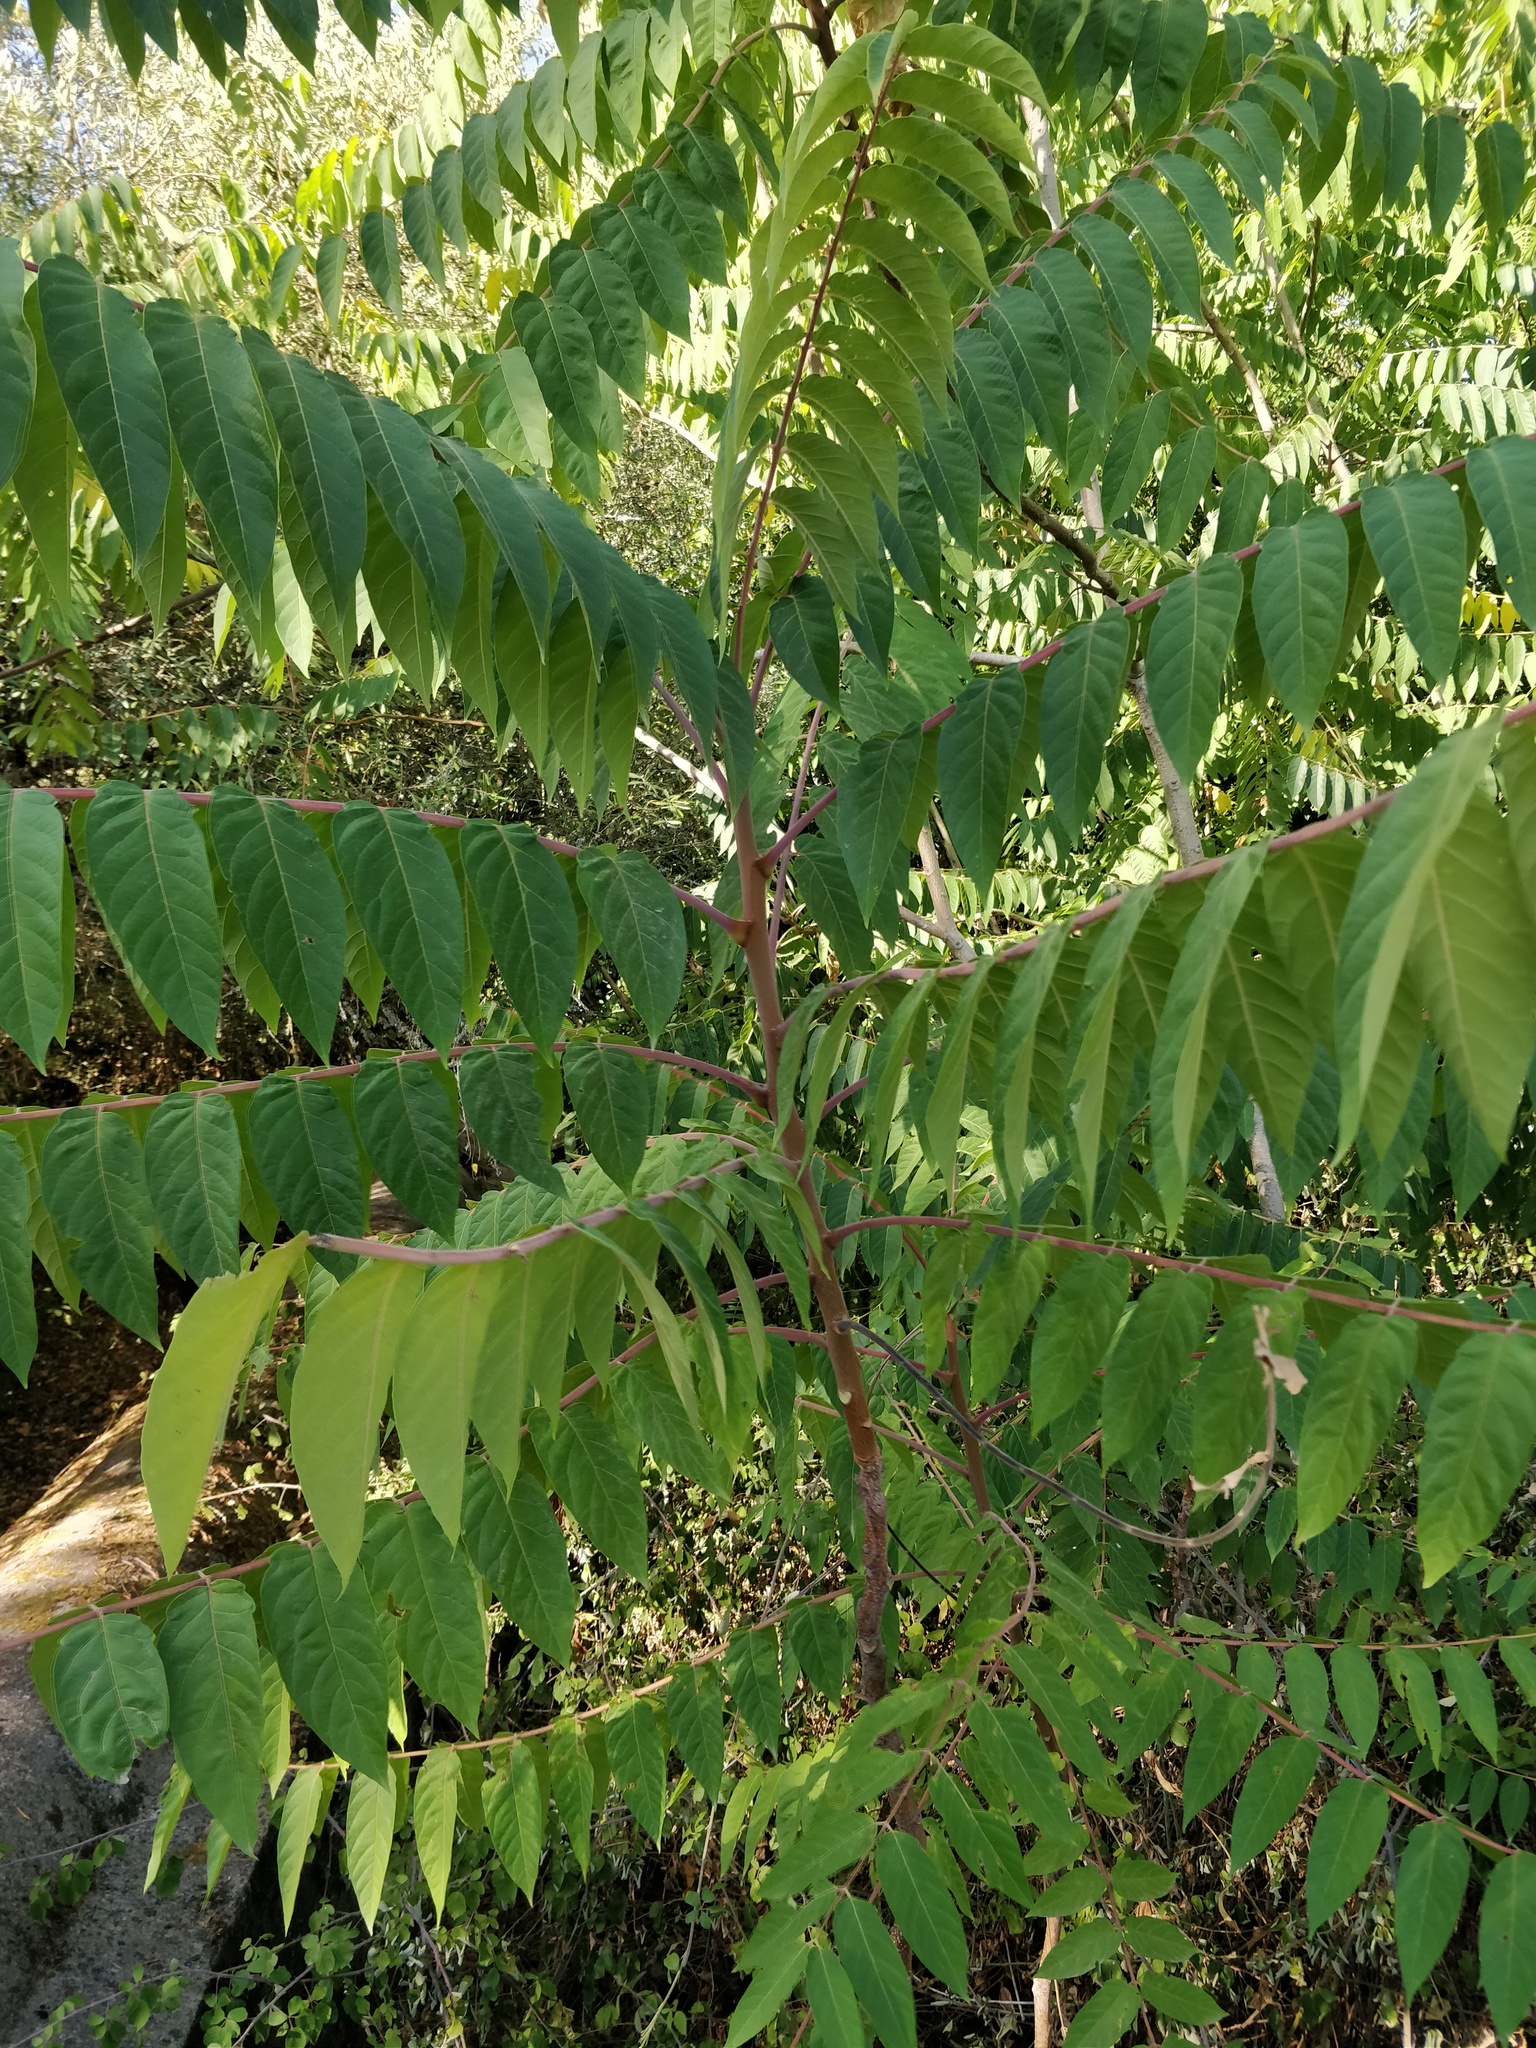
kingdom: Plantae
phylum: Tracheophyta
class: Magnoliopsida
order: Sapindales
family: Simaroubaceae
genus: Ailanthus
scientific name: Ailanthus altissima
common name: Tree-of-heaven
